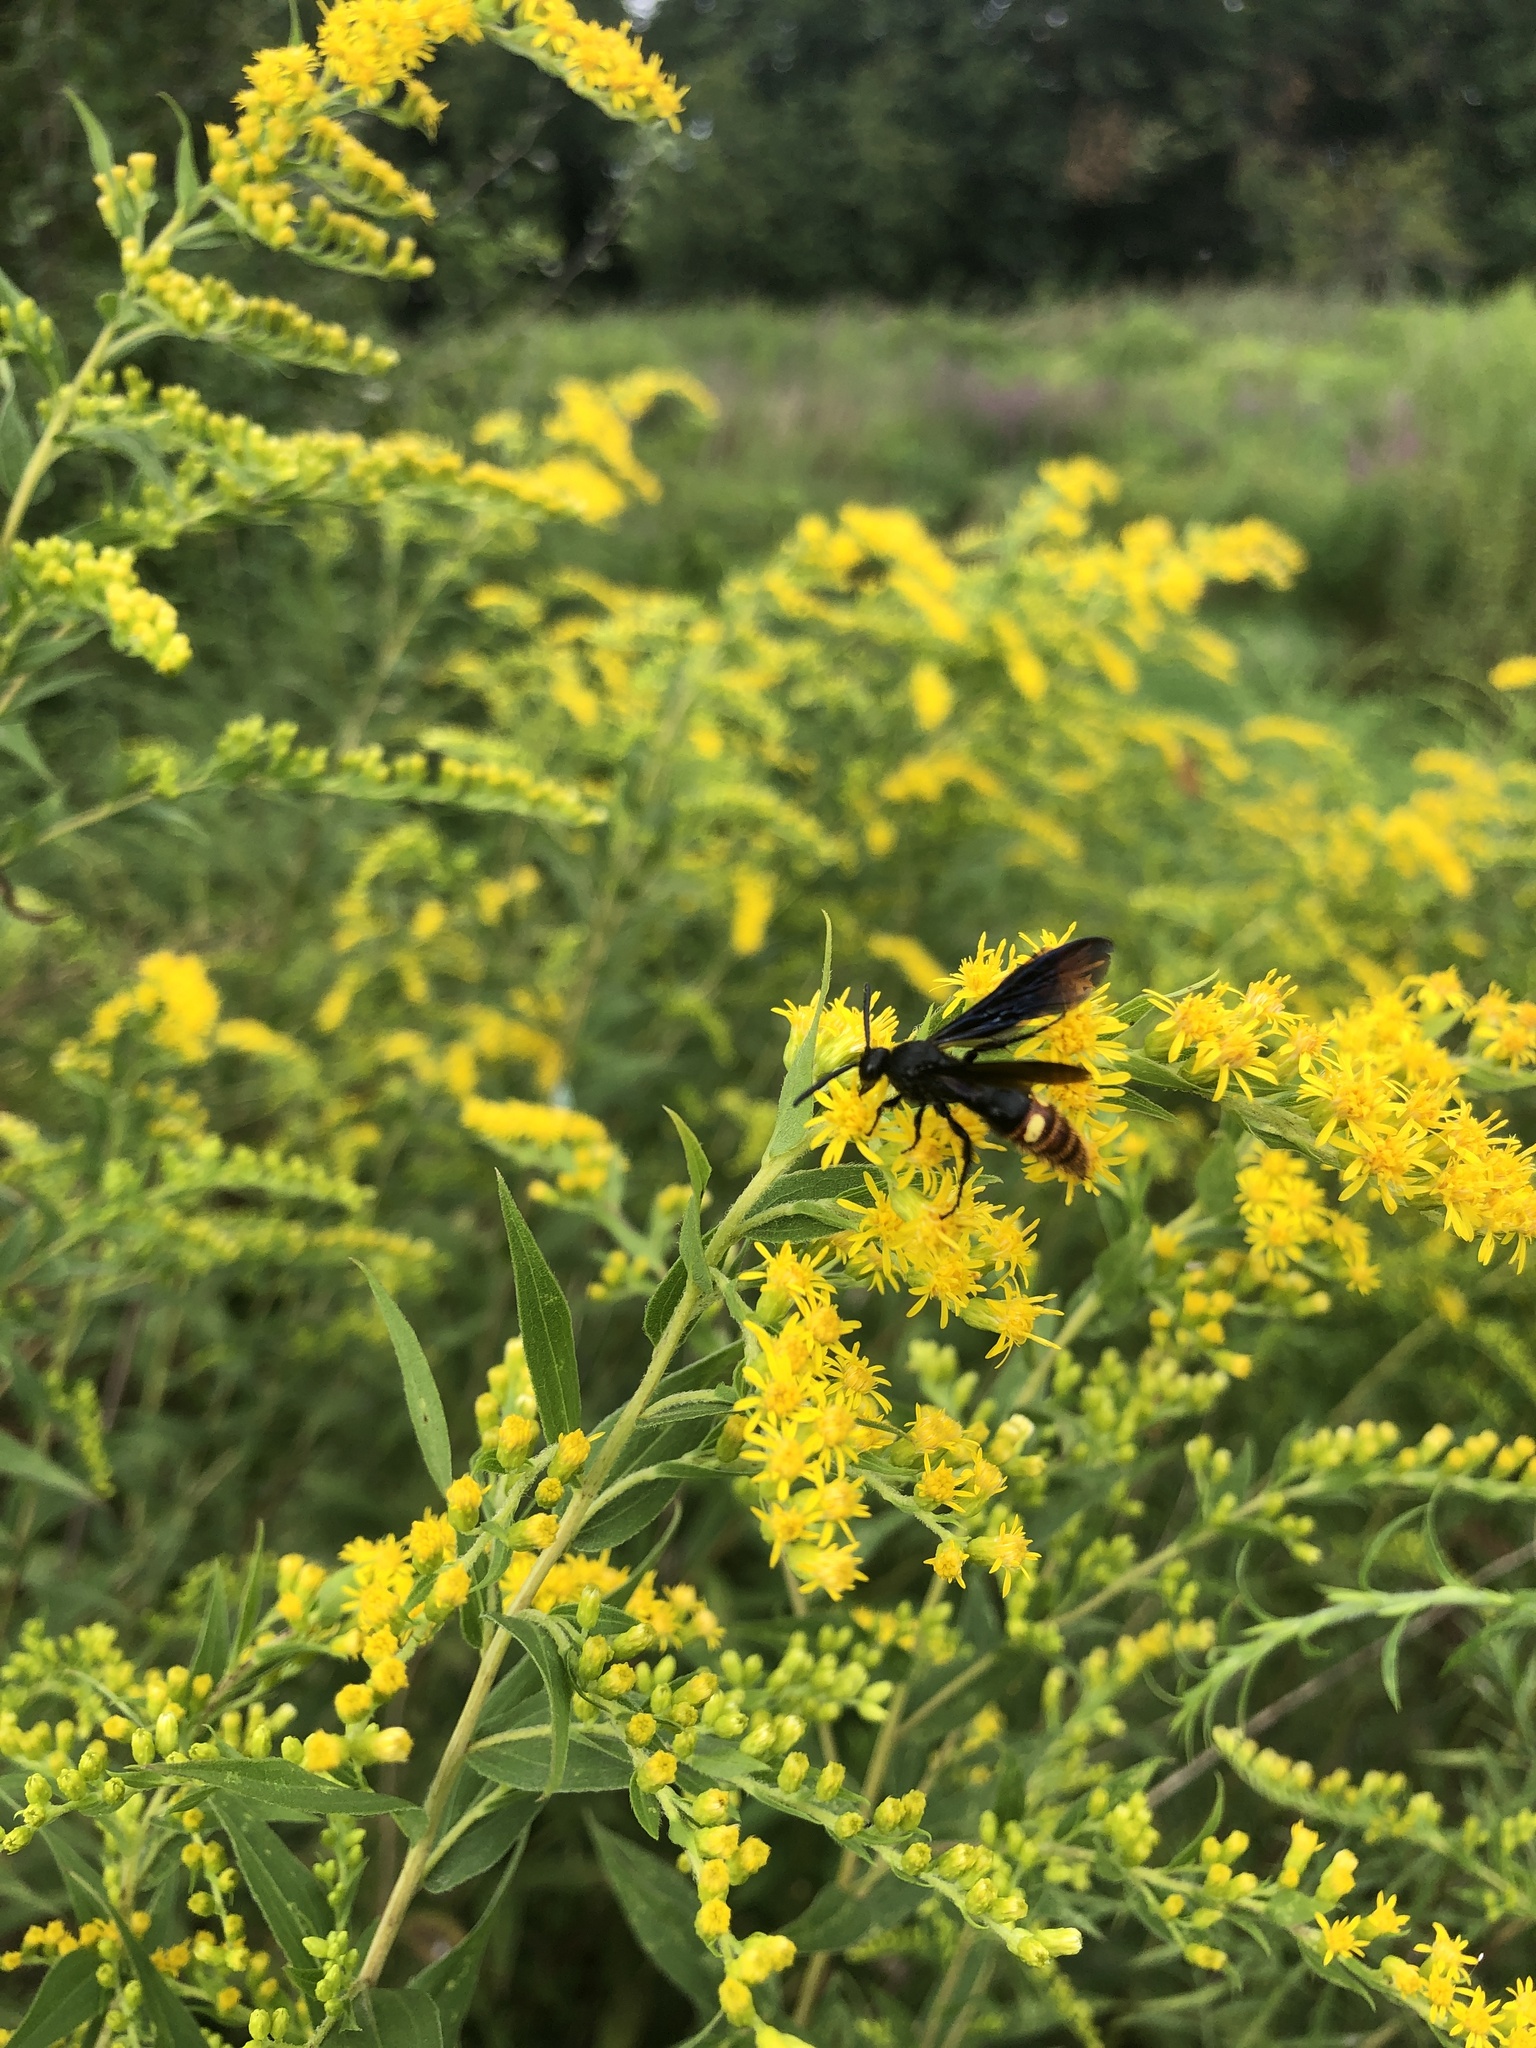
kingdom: Animalia
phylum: Arthropoda
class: Insecta
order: Hymenoptera
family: Scoliidae
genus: Scolia
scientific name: Scolia dubia
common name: Blue-winged scoliid wasp
